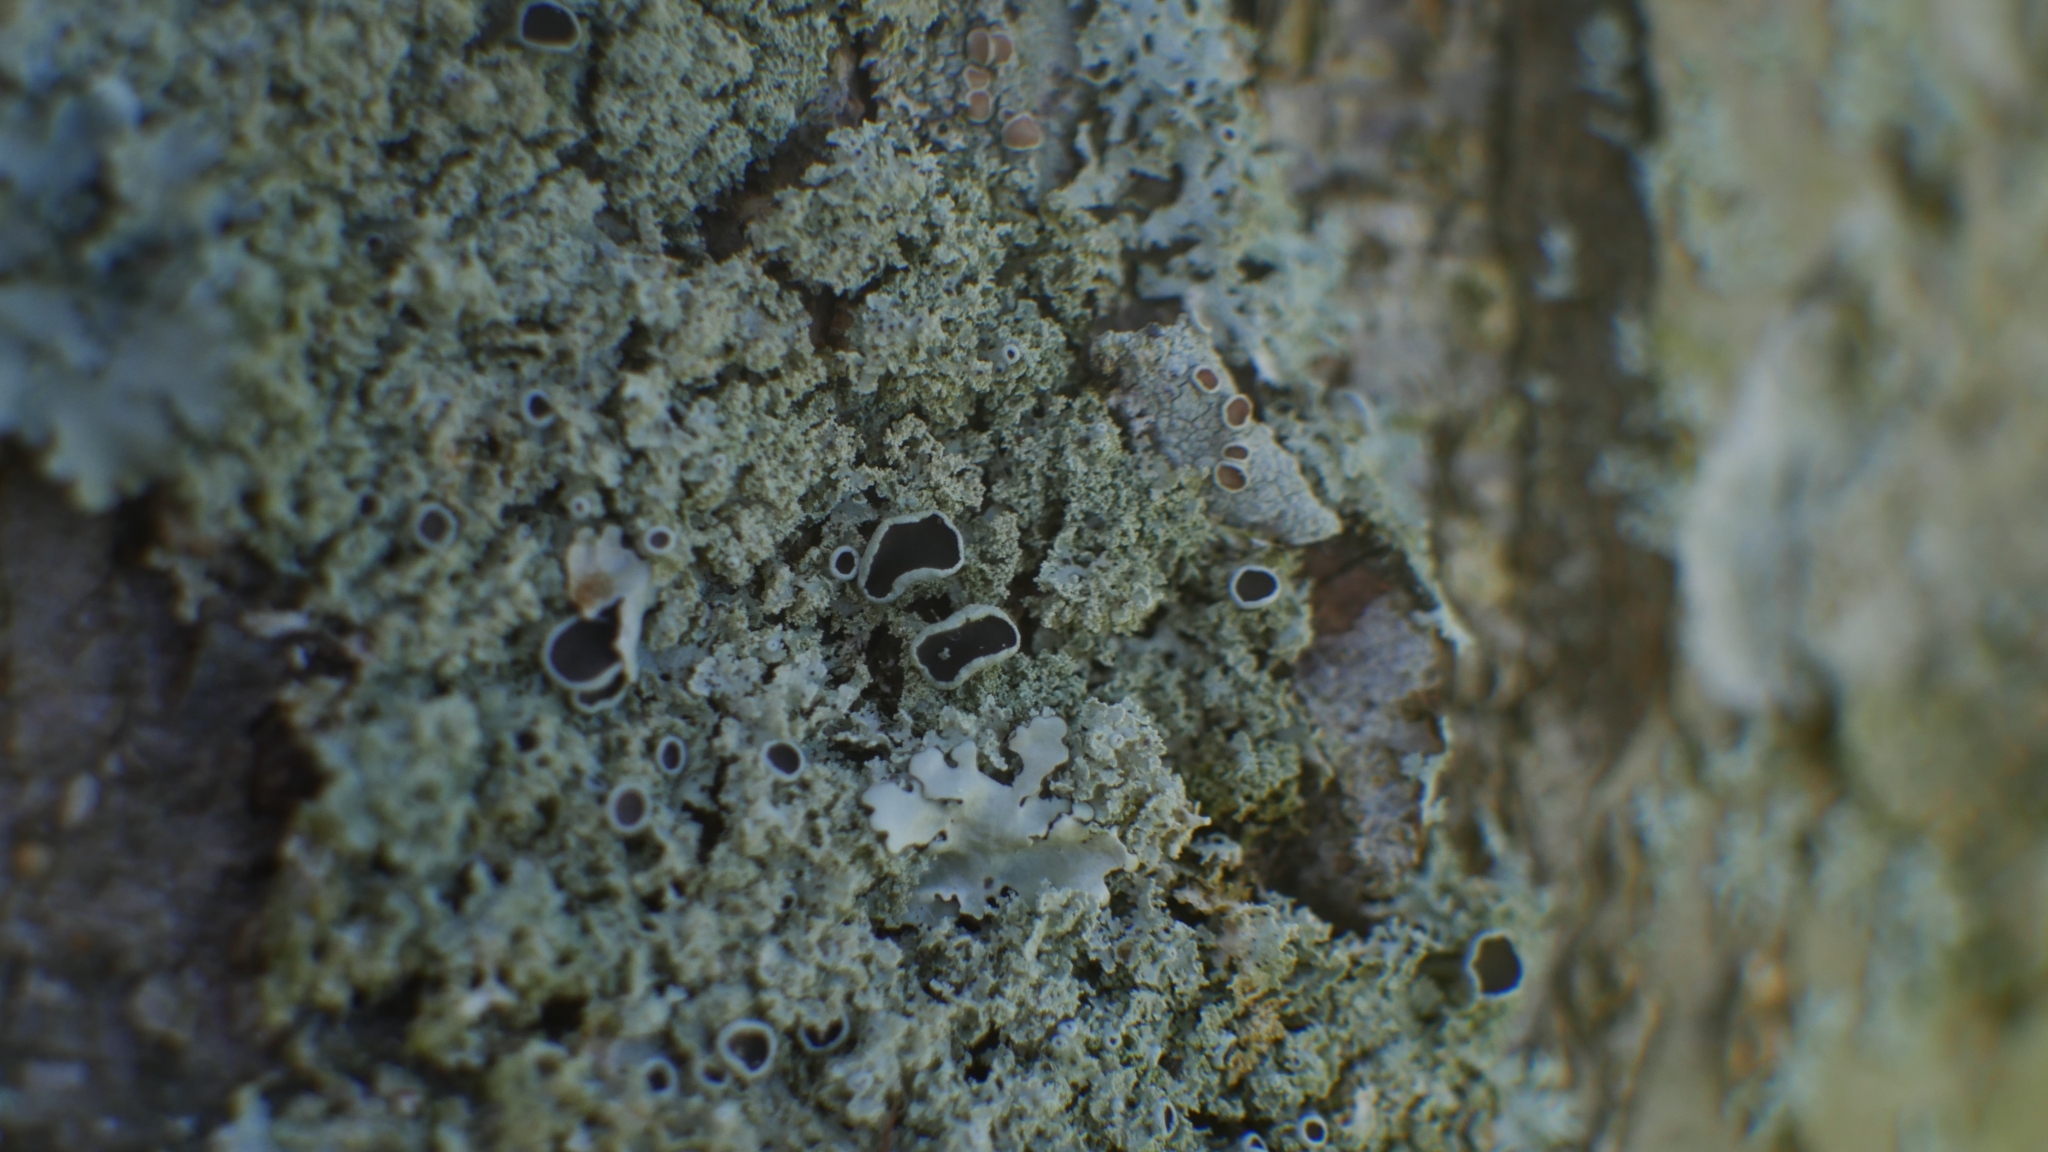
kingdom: Fungi
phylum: Ascomycota
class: Lecanoromycetes
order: Caliciales
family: Physciaceae
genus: Physcia
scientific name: Physcia millegrana
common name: Rosette lichen
